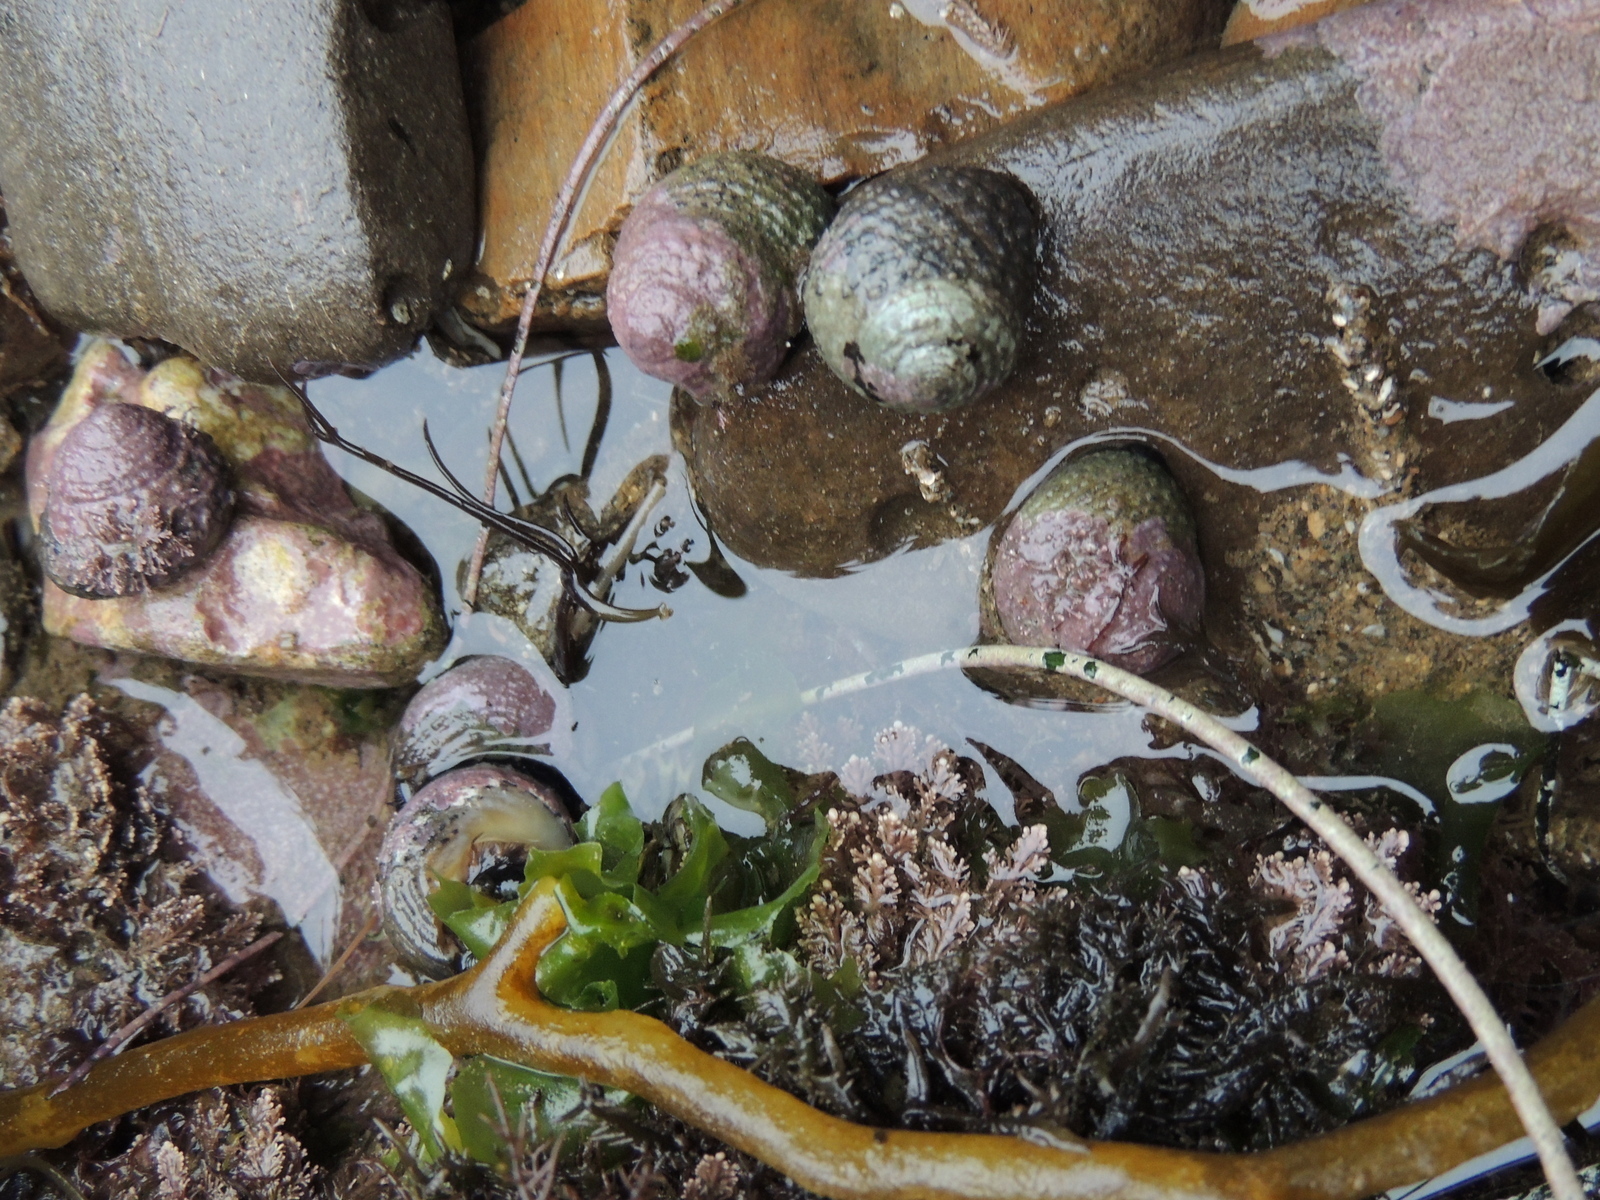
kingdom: Animalia
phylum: Mollusca
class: Gastropoda
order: Trochida
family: Tegulidae
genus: Tegula
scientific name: Tegula eiseni
